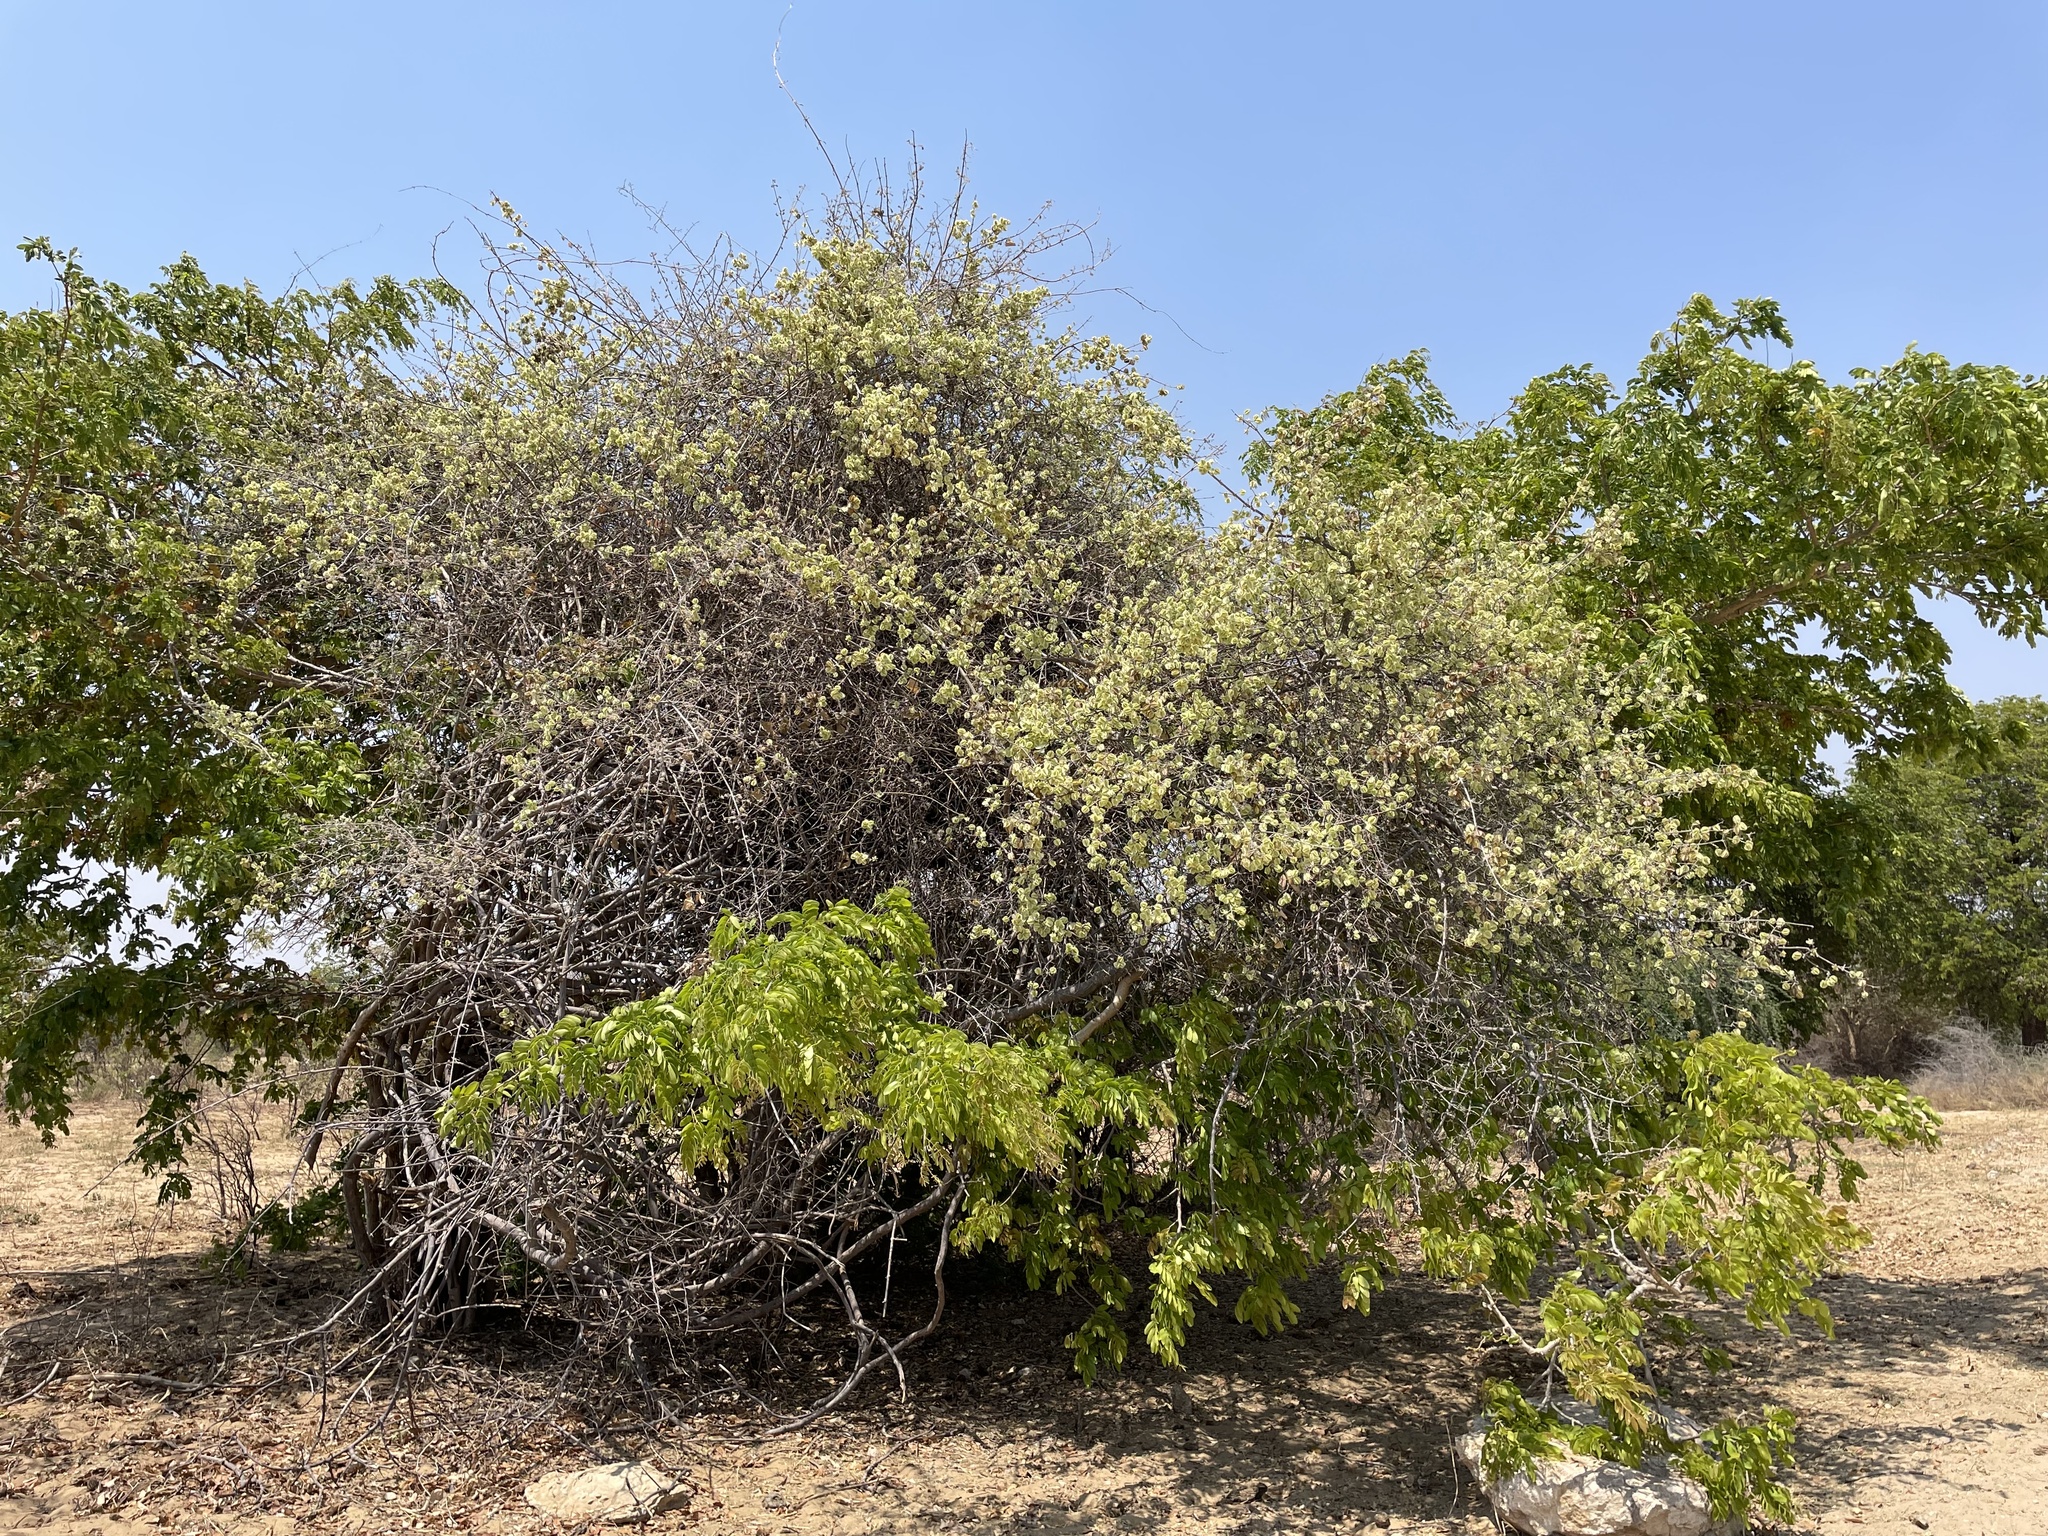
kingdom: Plantae
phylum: Tracheophyta
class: Magnoliopsida
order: Myrtales
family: Combretaceae
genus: Combretum
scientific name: Combretum mossambicense
